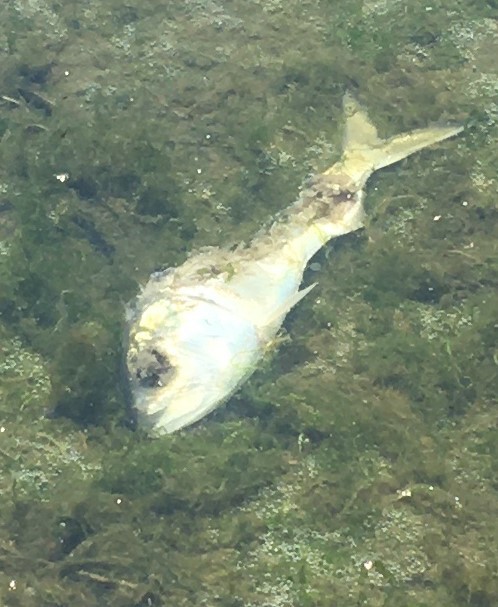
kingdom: Animalia
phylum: Chordata
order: Clupeiformes
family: Clupeidae
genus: Brevoortia
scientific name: Brevoortia tyrannus
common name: Atlantic menhaden
